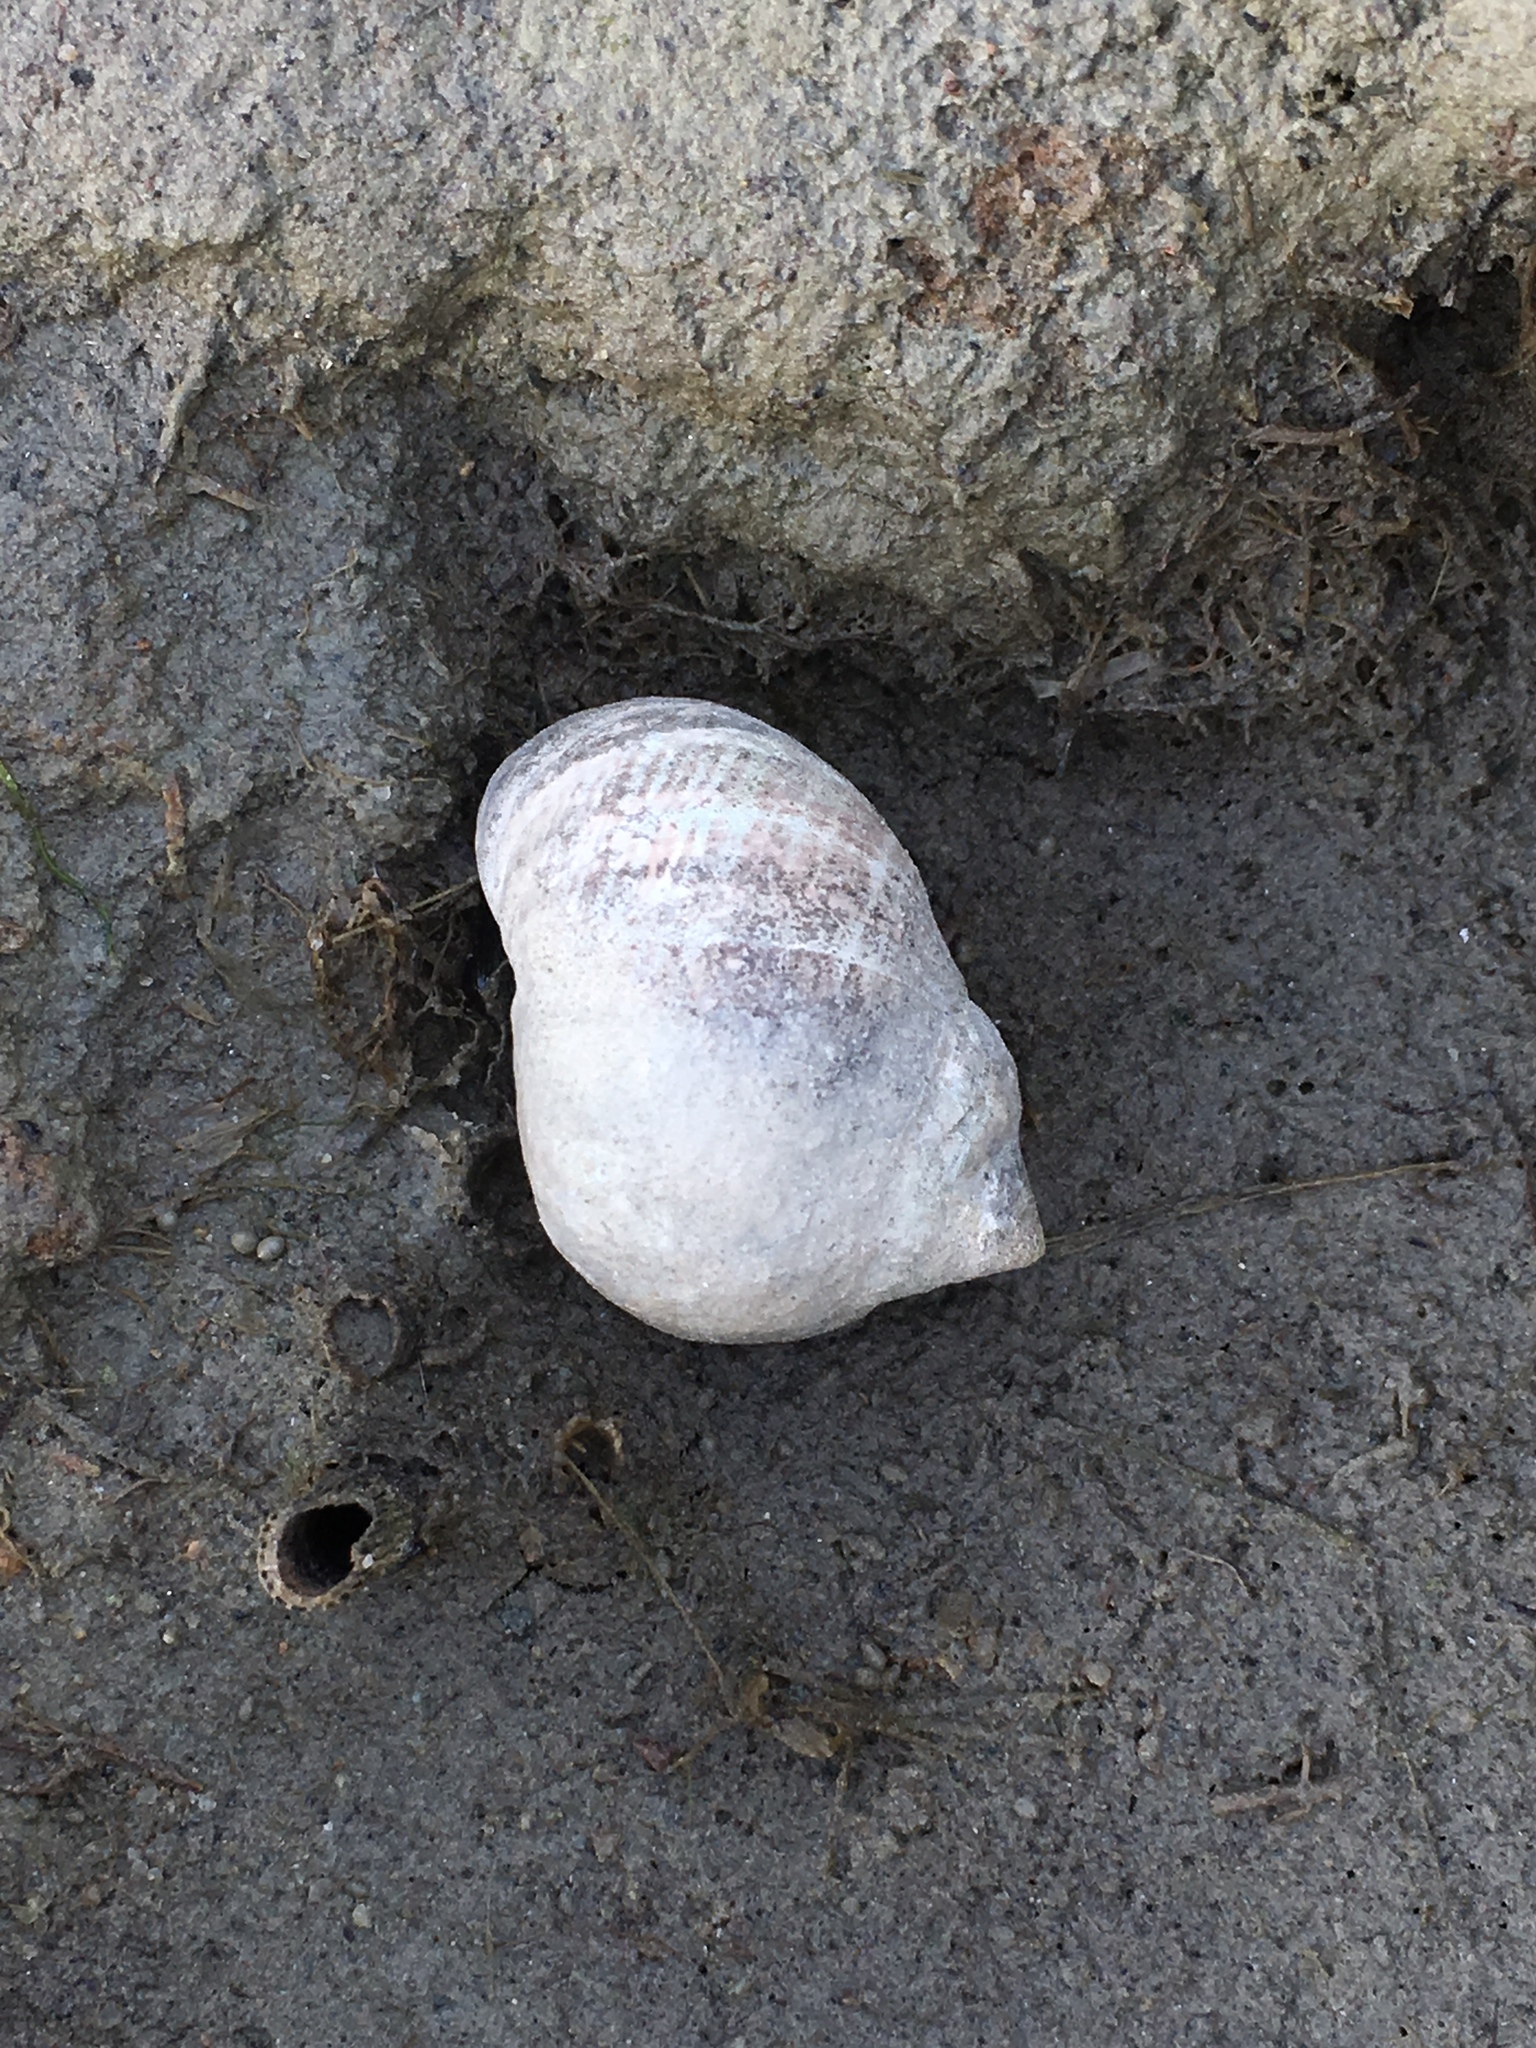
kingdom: Animalia
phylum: Mollusca
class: Gastropoda
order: Littorinimorpha
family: Littorinidae
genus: Littorina
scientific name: Littorina littorea
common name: Common periwinkle
